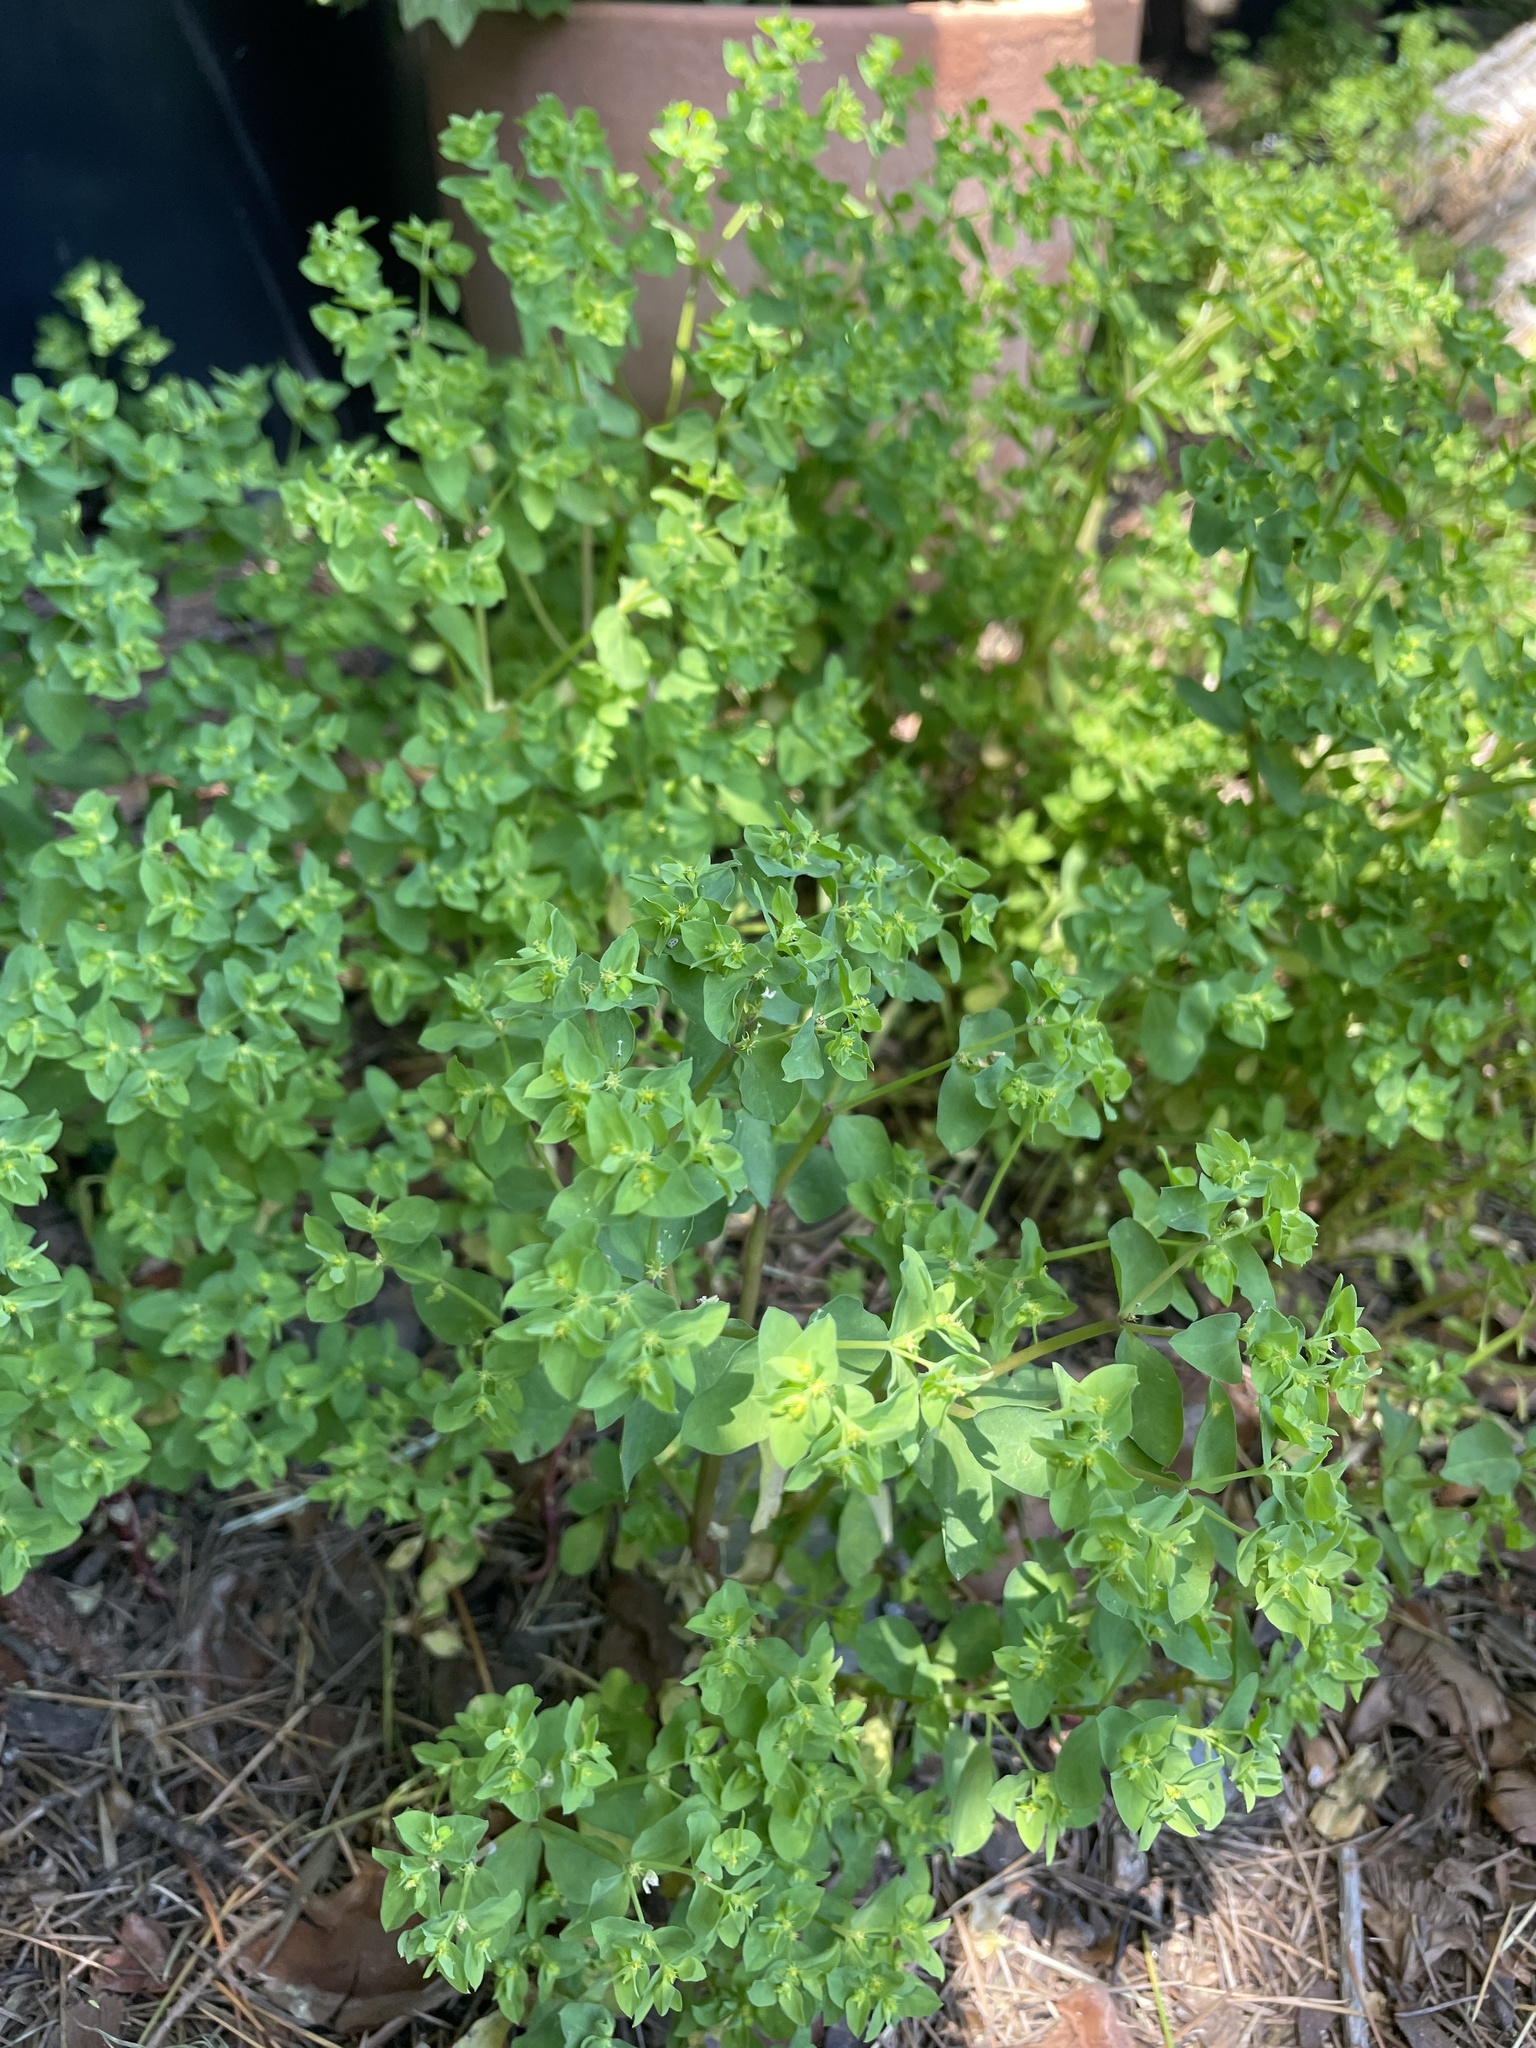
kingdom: Plantae
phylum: Tracheophyta
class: Magnoliopsida
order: Malpighiales
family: Euphorbiaceae
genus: Euphorbia
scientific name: Euphorbia peplus
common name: Petty spurge
